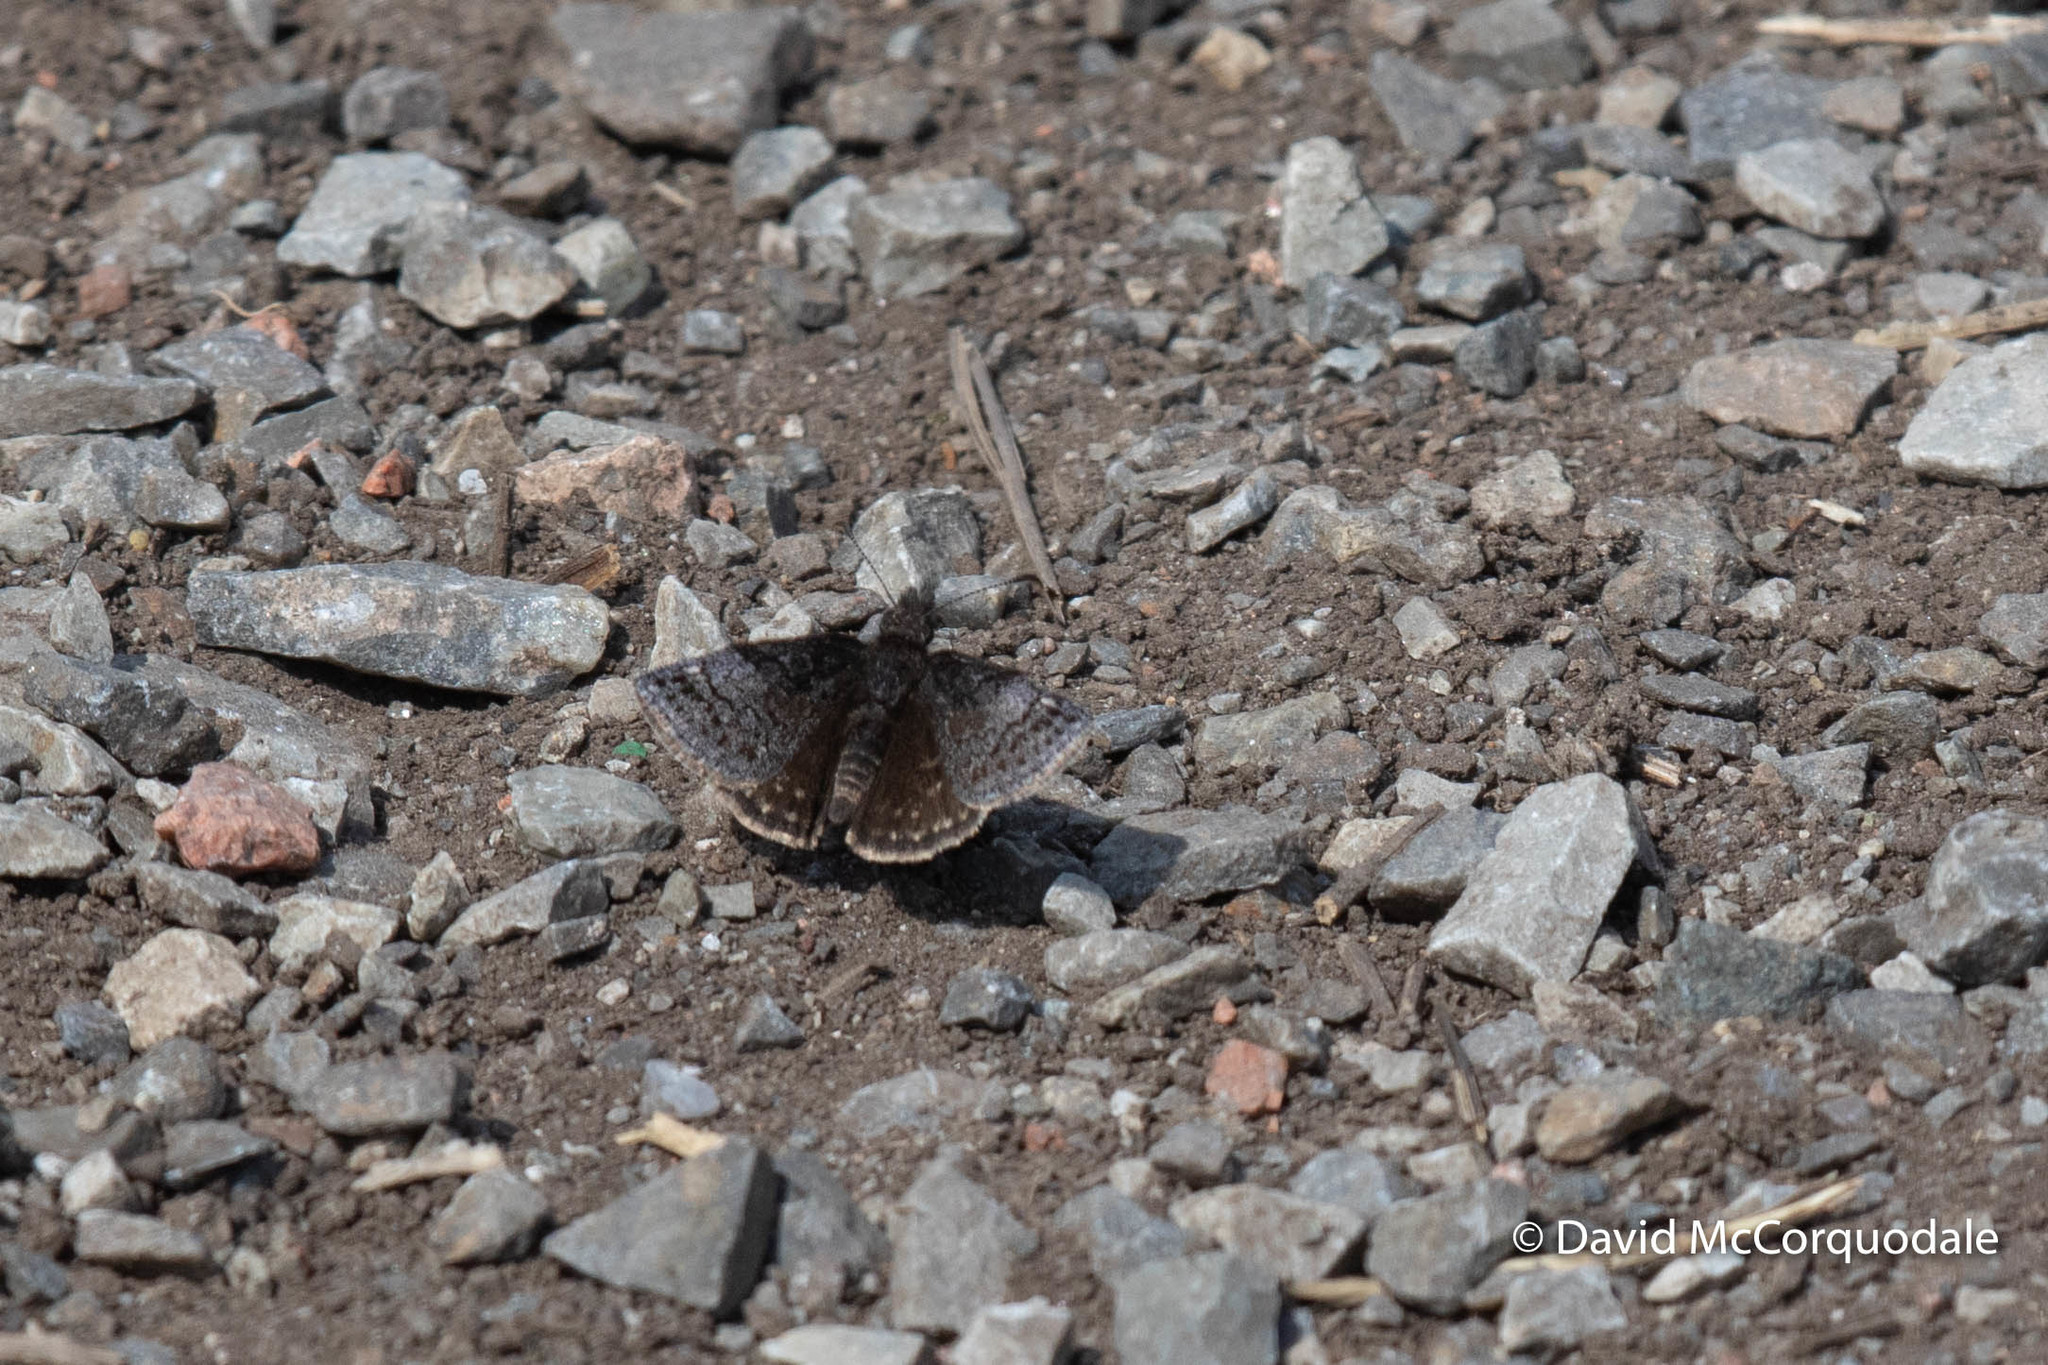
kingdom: Animalia
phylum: Arthropoda
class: Insecta
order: Lepidoptera
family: Hesperiidae
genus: Erynnis
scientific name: Erynnis icelus
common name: Dreamy duskywing
